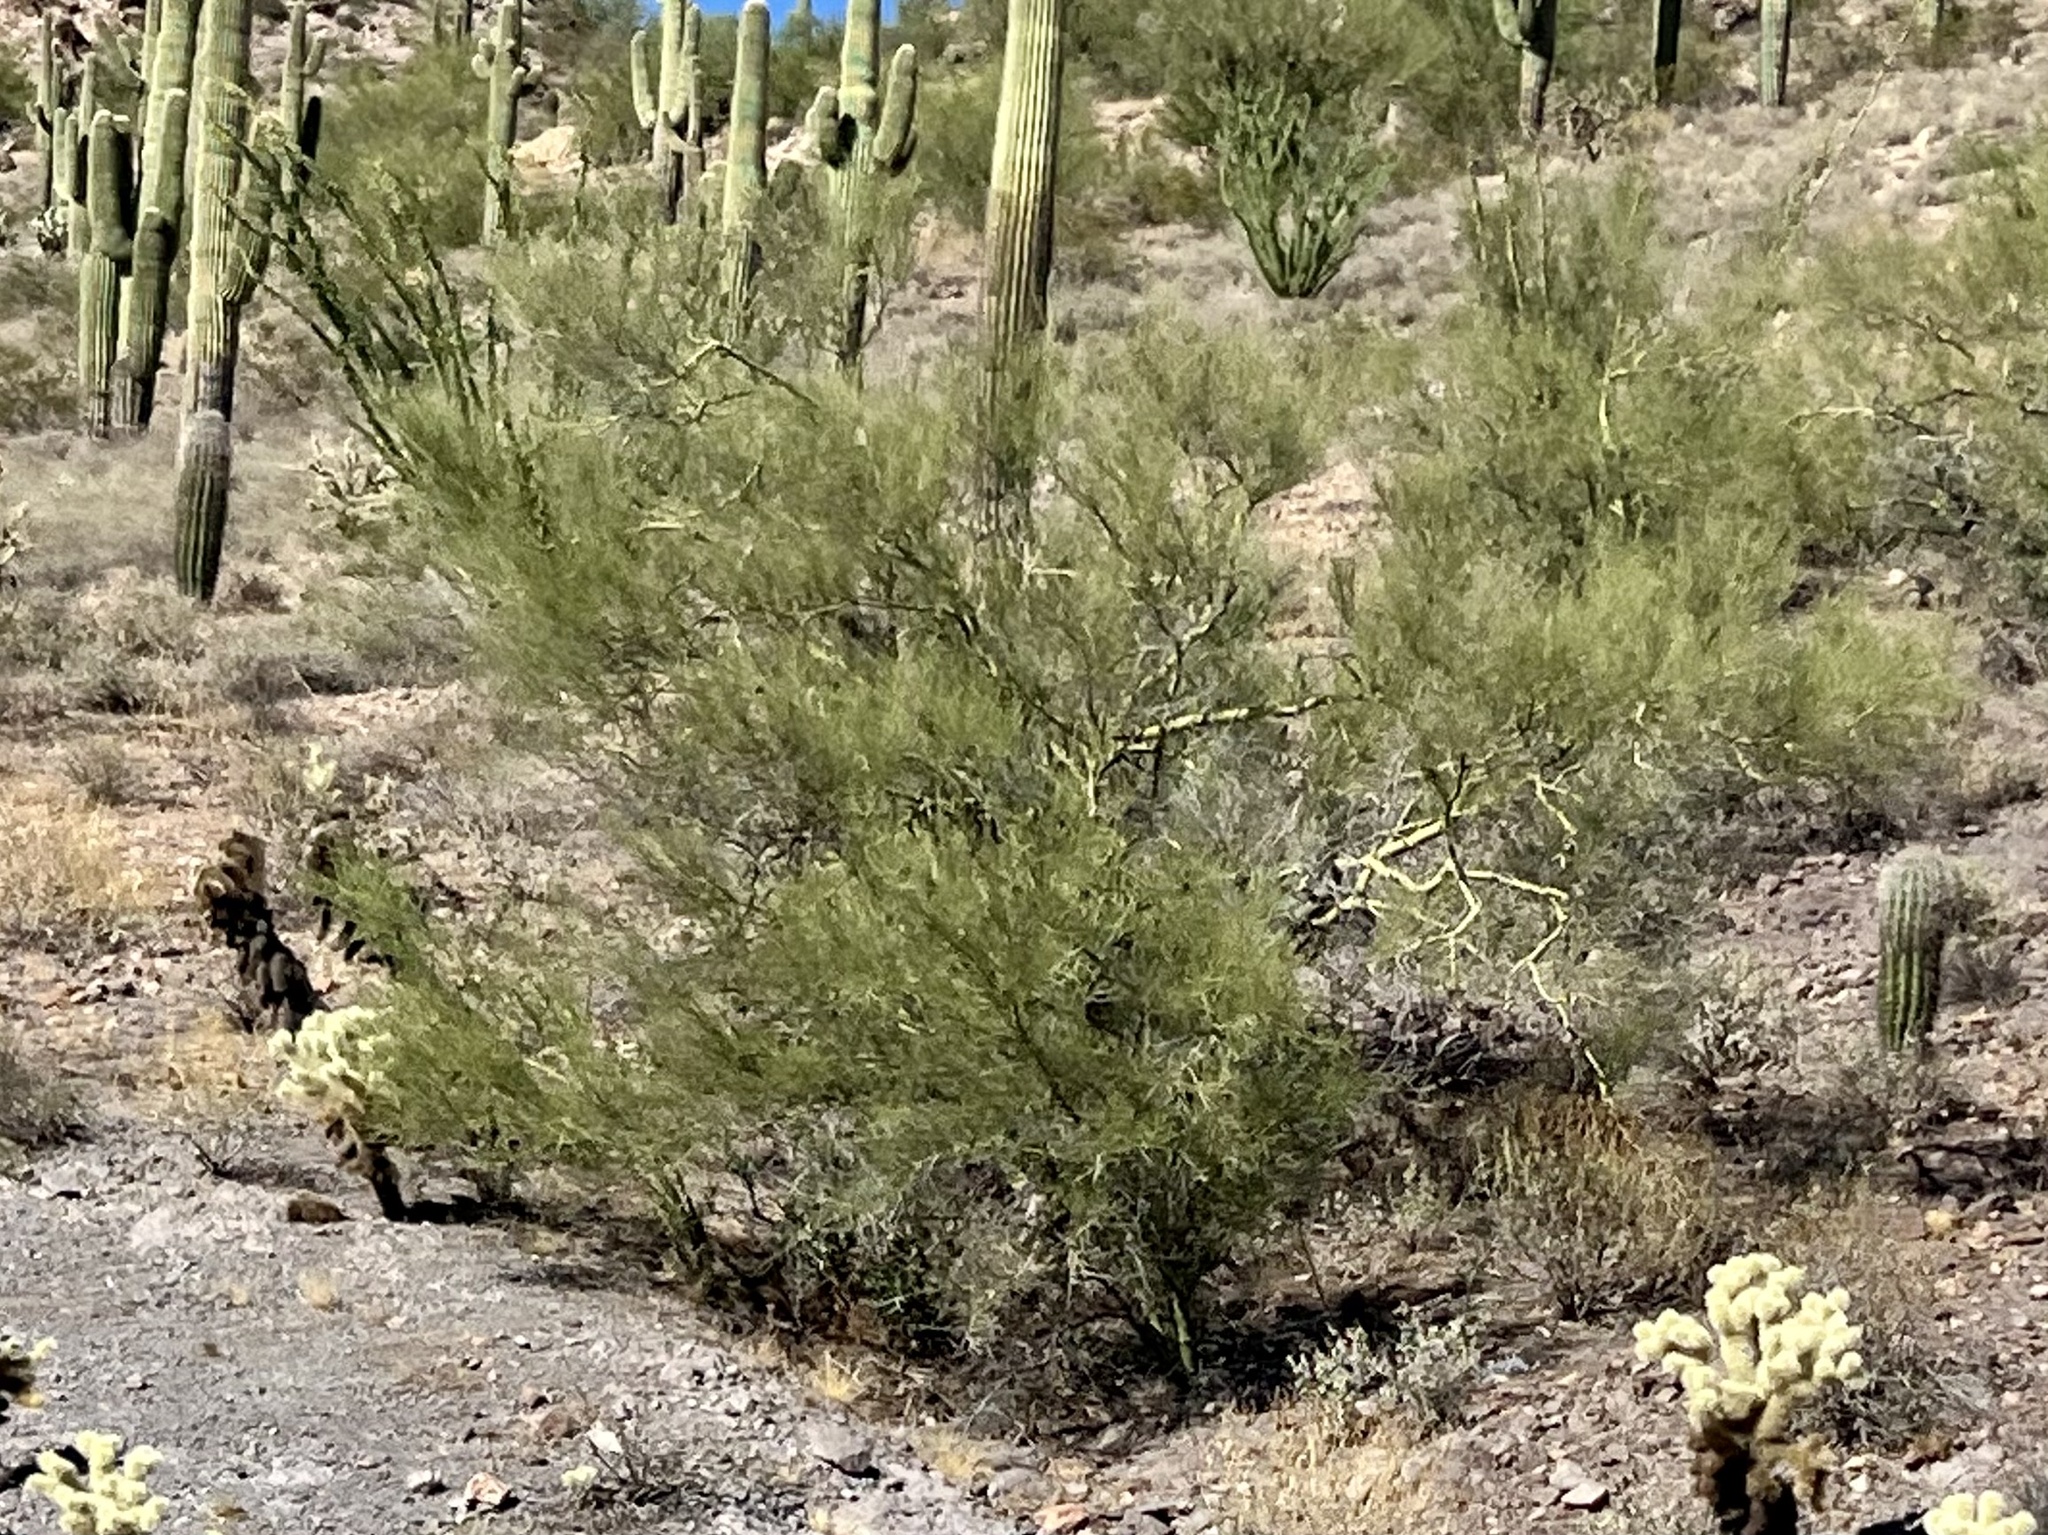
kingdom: Plantae
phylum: Tracheophyta
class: Magnoliopsida
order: Fabales
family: Fabaceae
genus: Parkinsonia
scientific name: Parkinsonia microphylla
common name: Yellow paloverde
